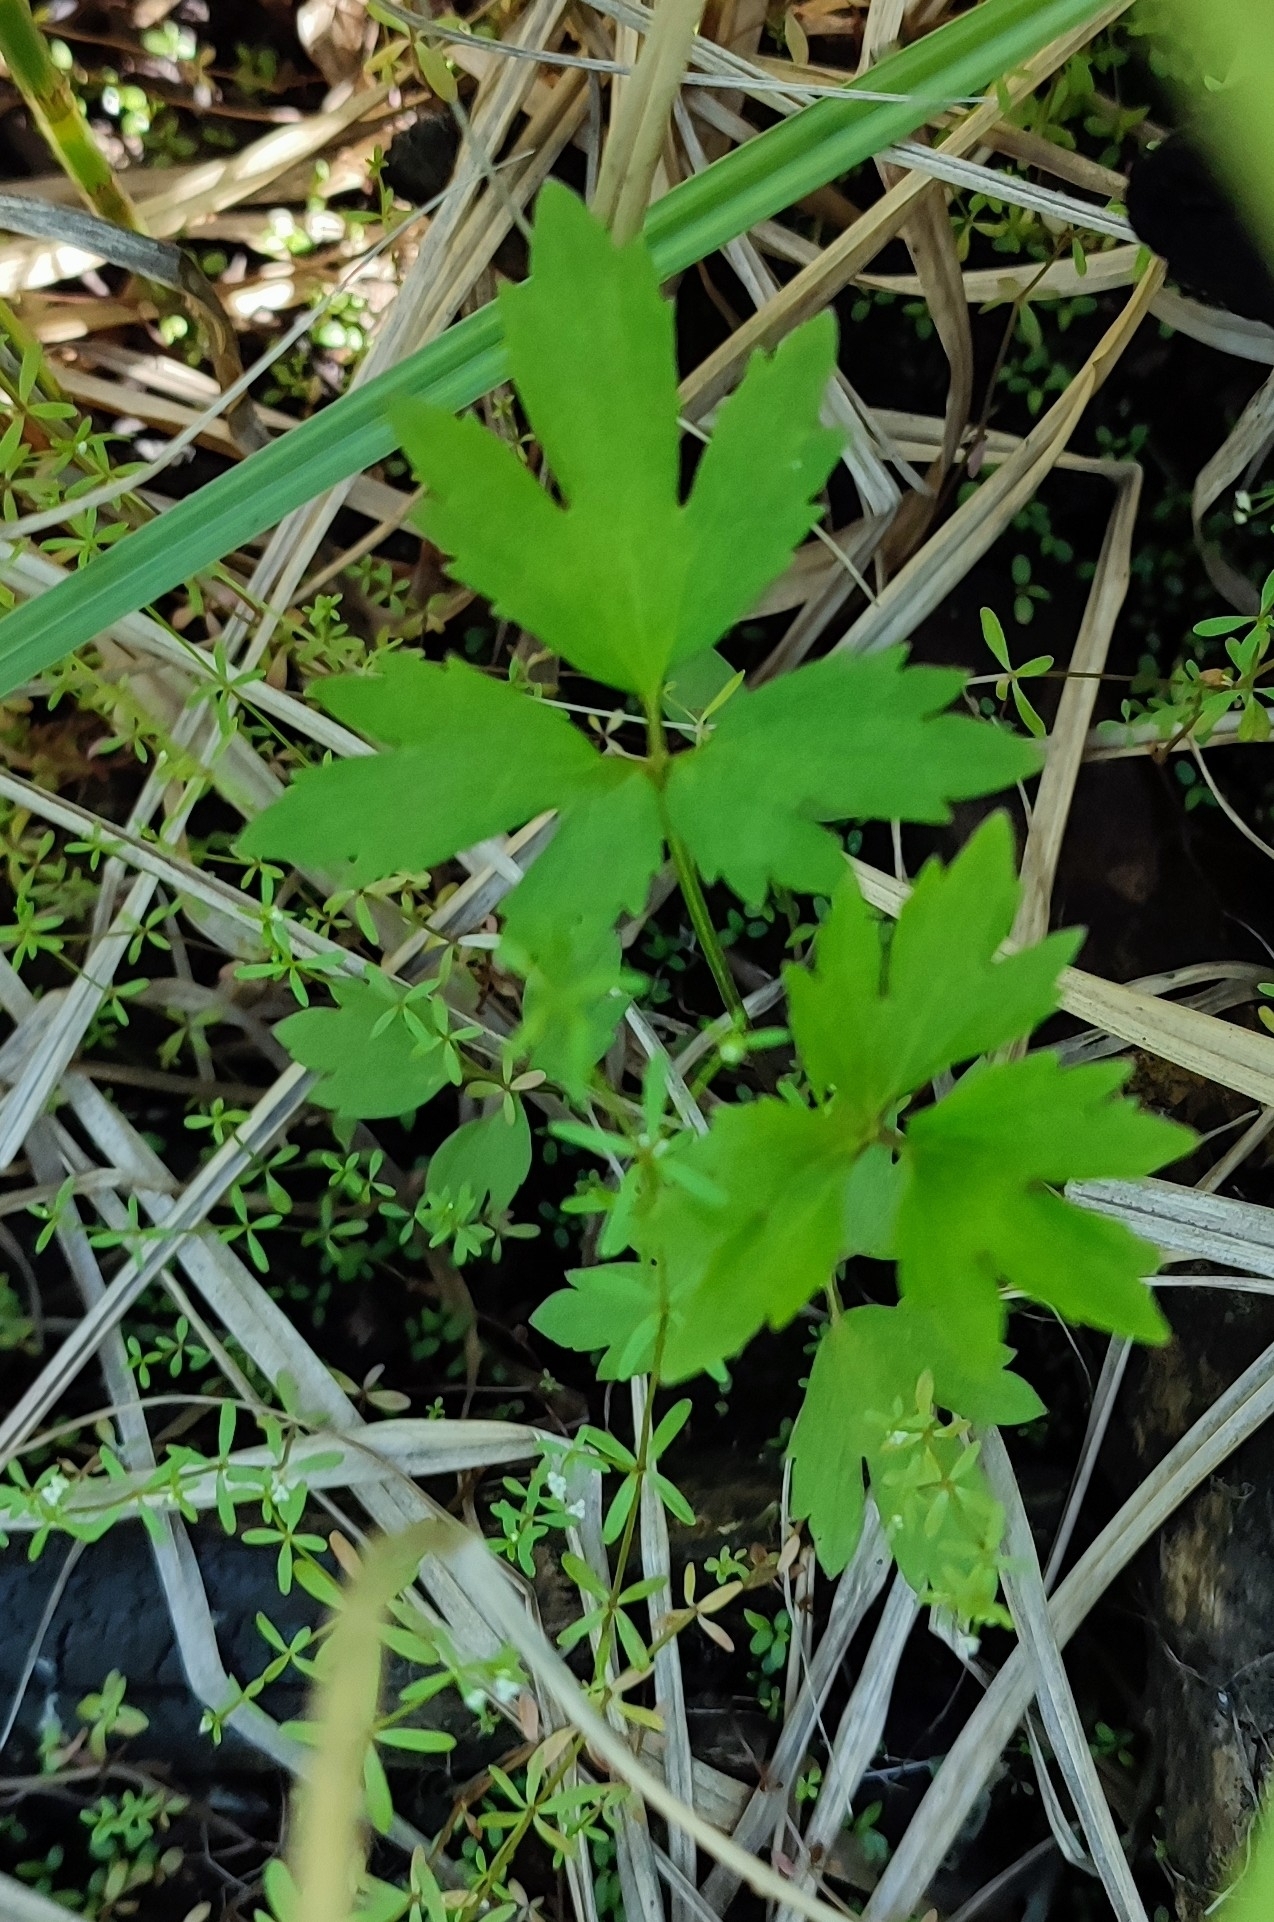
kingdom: Plantae
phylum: Tracheophyta
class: Magnoliopsida
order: Ranunculales
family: Ranunculaceae
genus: Ranunculus
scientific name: Ranunculus repens
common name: Creeping buttercup
